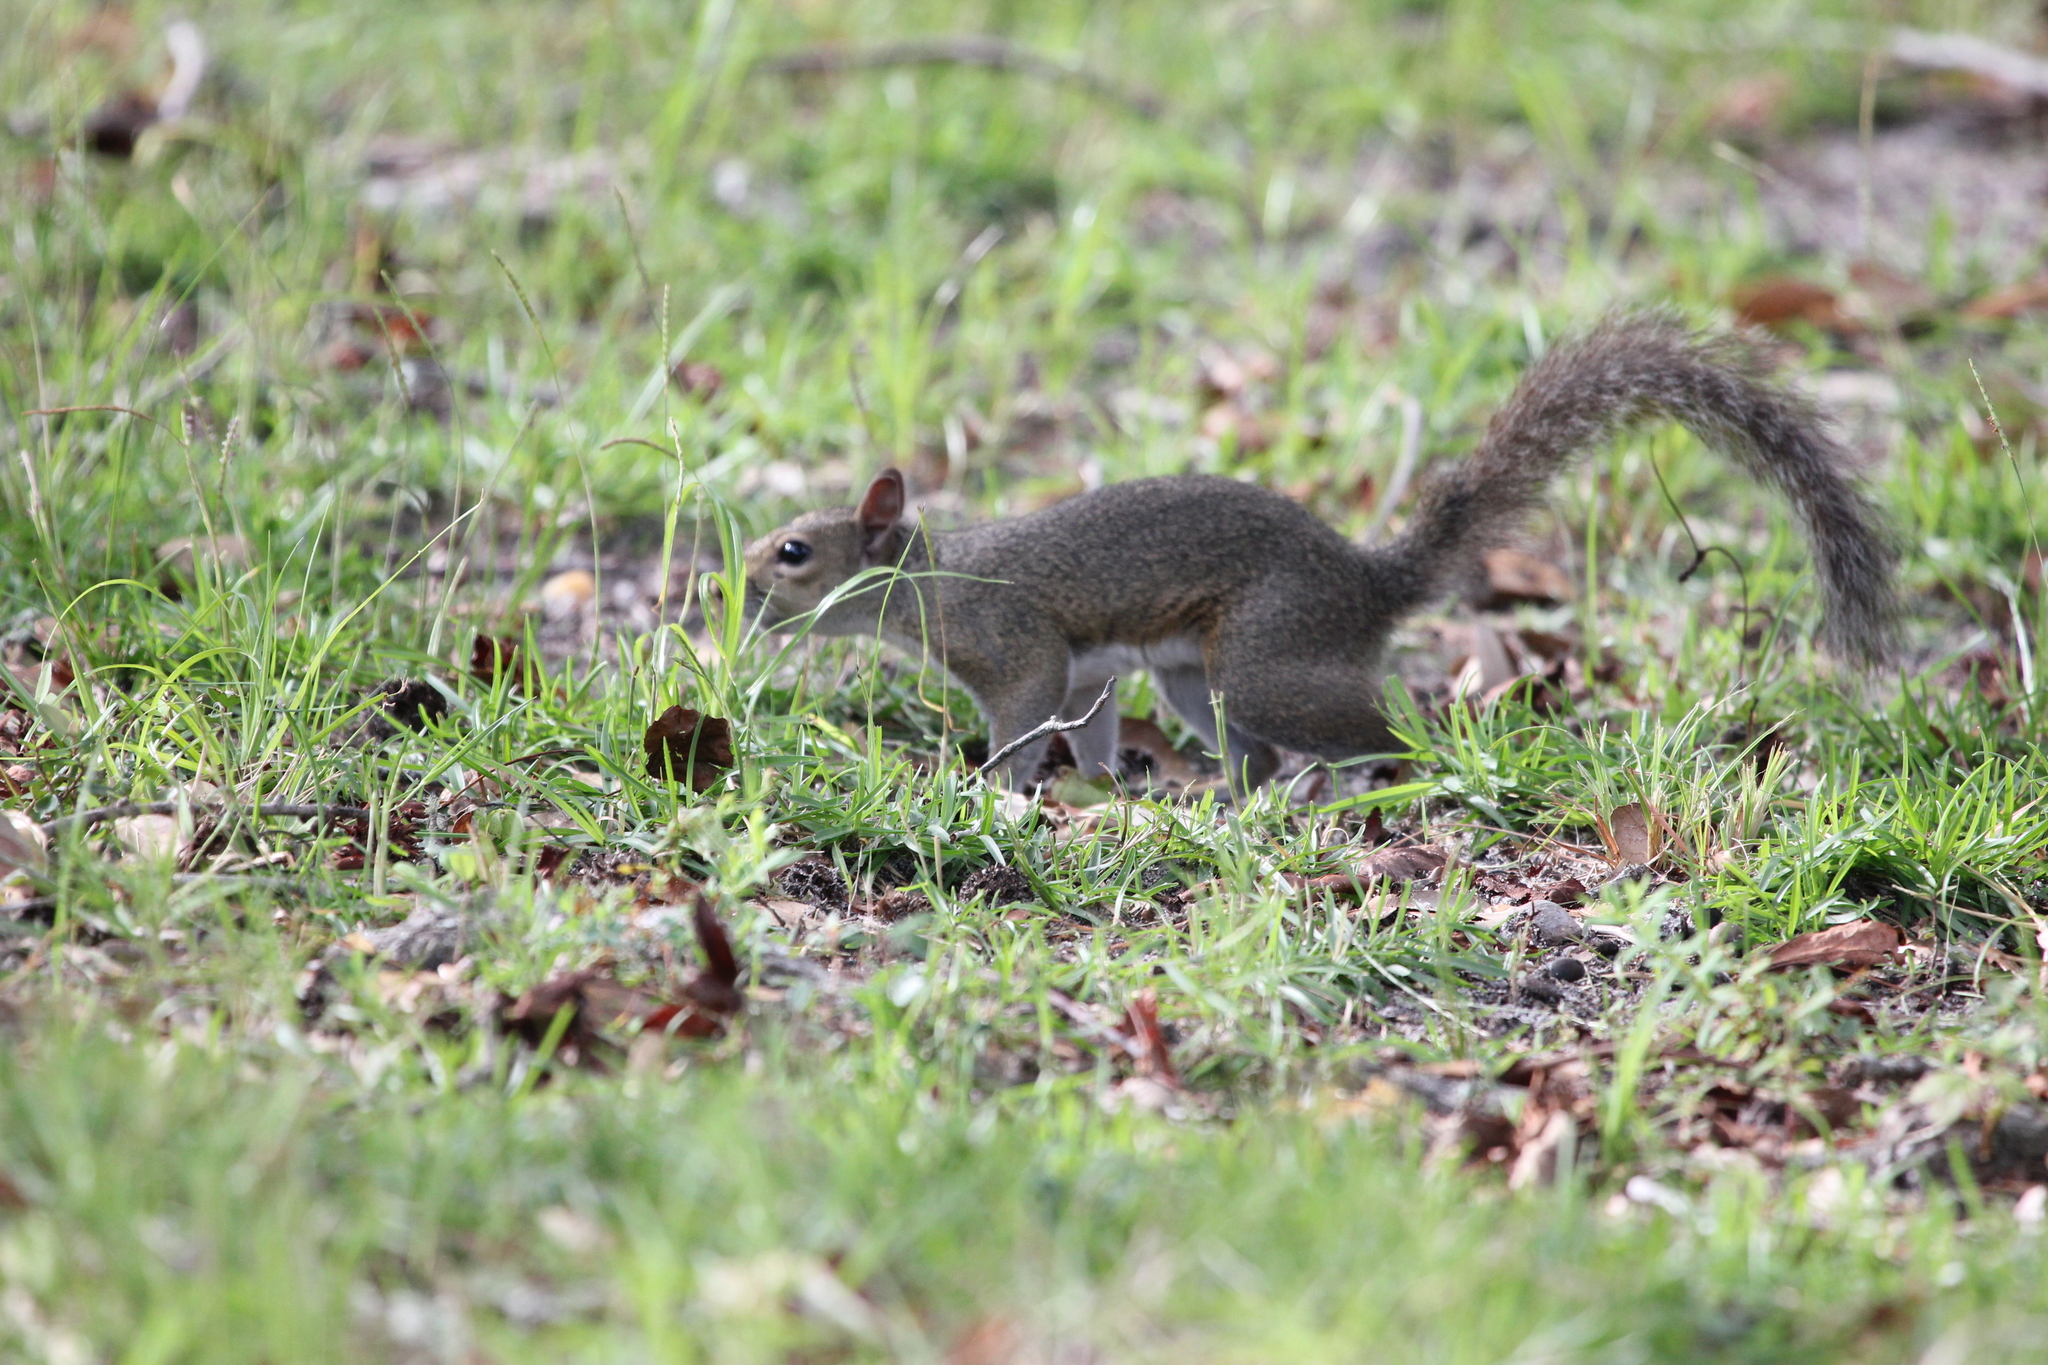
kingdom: Animalia
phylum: Chordata
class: Mammalia
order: Rodentia
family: Sciuridae
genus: Sciurus
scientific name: Sciurus carolinensis
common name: Eastern gray squirrel
